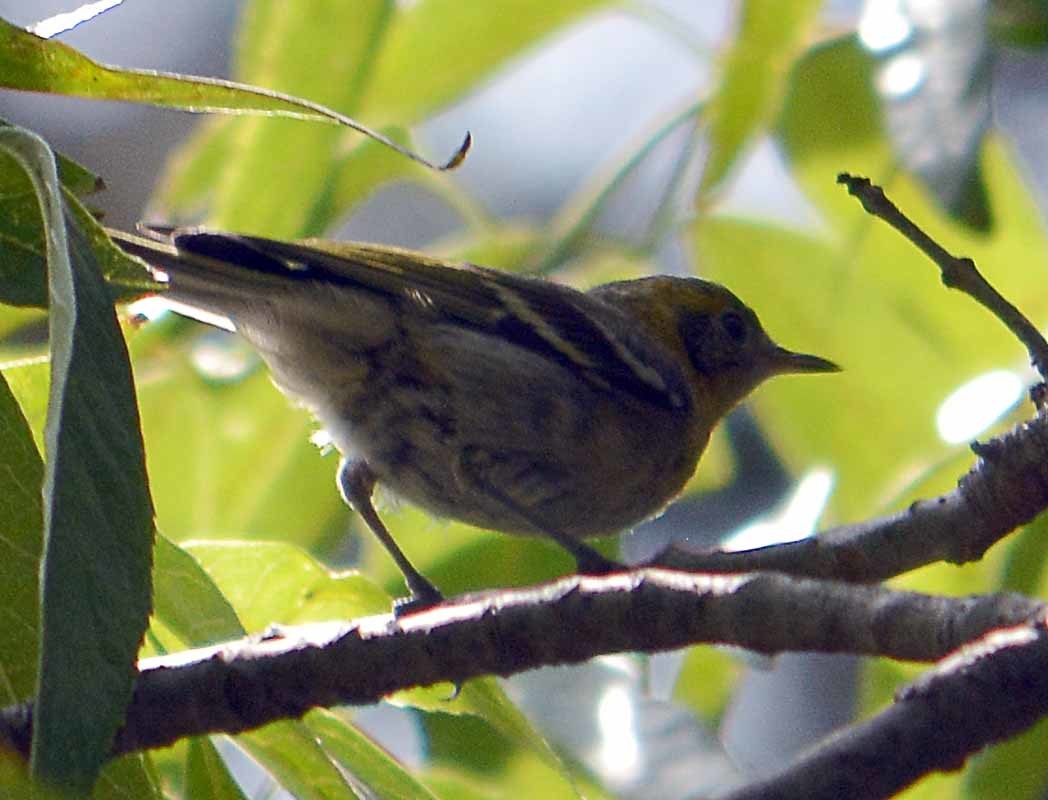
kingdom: Animalia
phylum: Chordata
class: Aves
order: Passeriformes
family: Peucedramidae
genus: Peucedramus
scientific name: Peucedramus taeniatus
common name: Olive warbler
